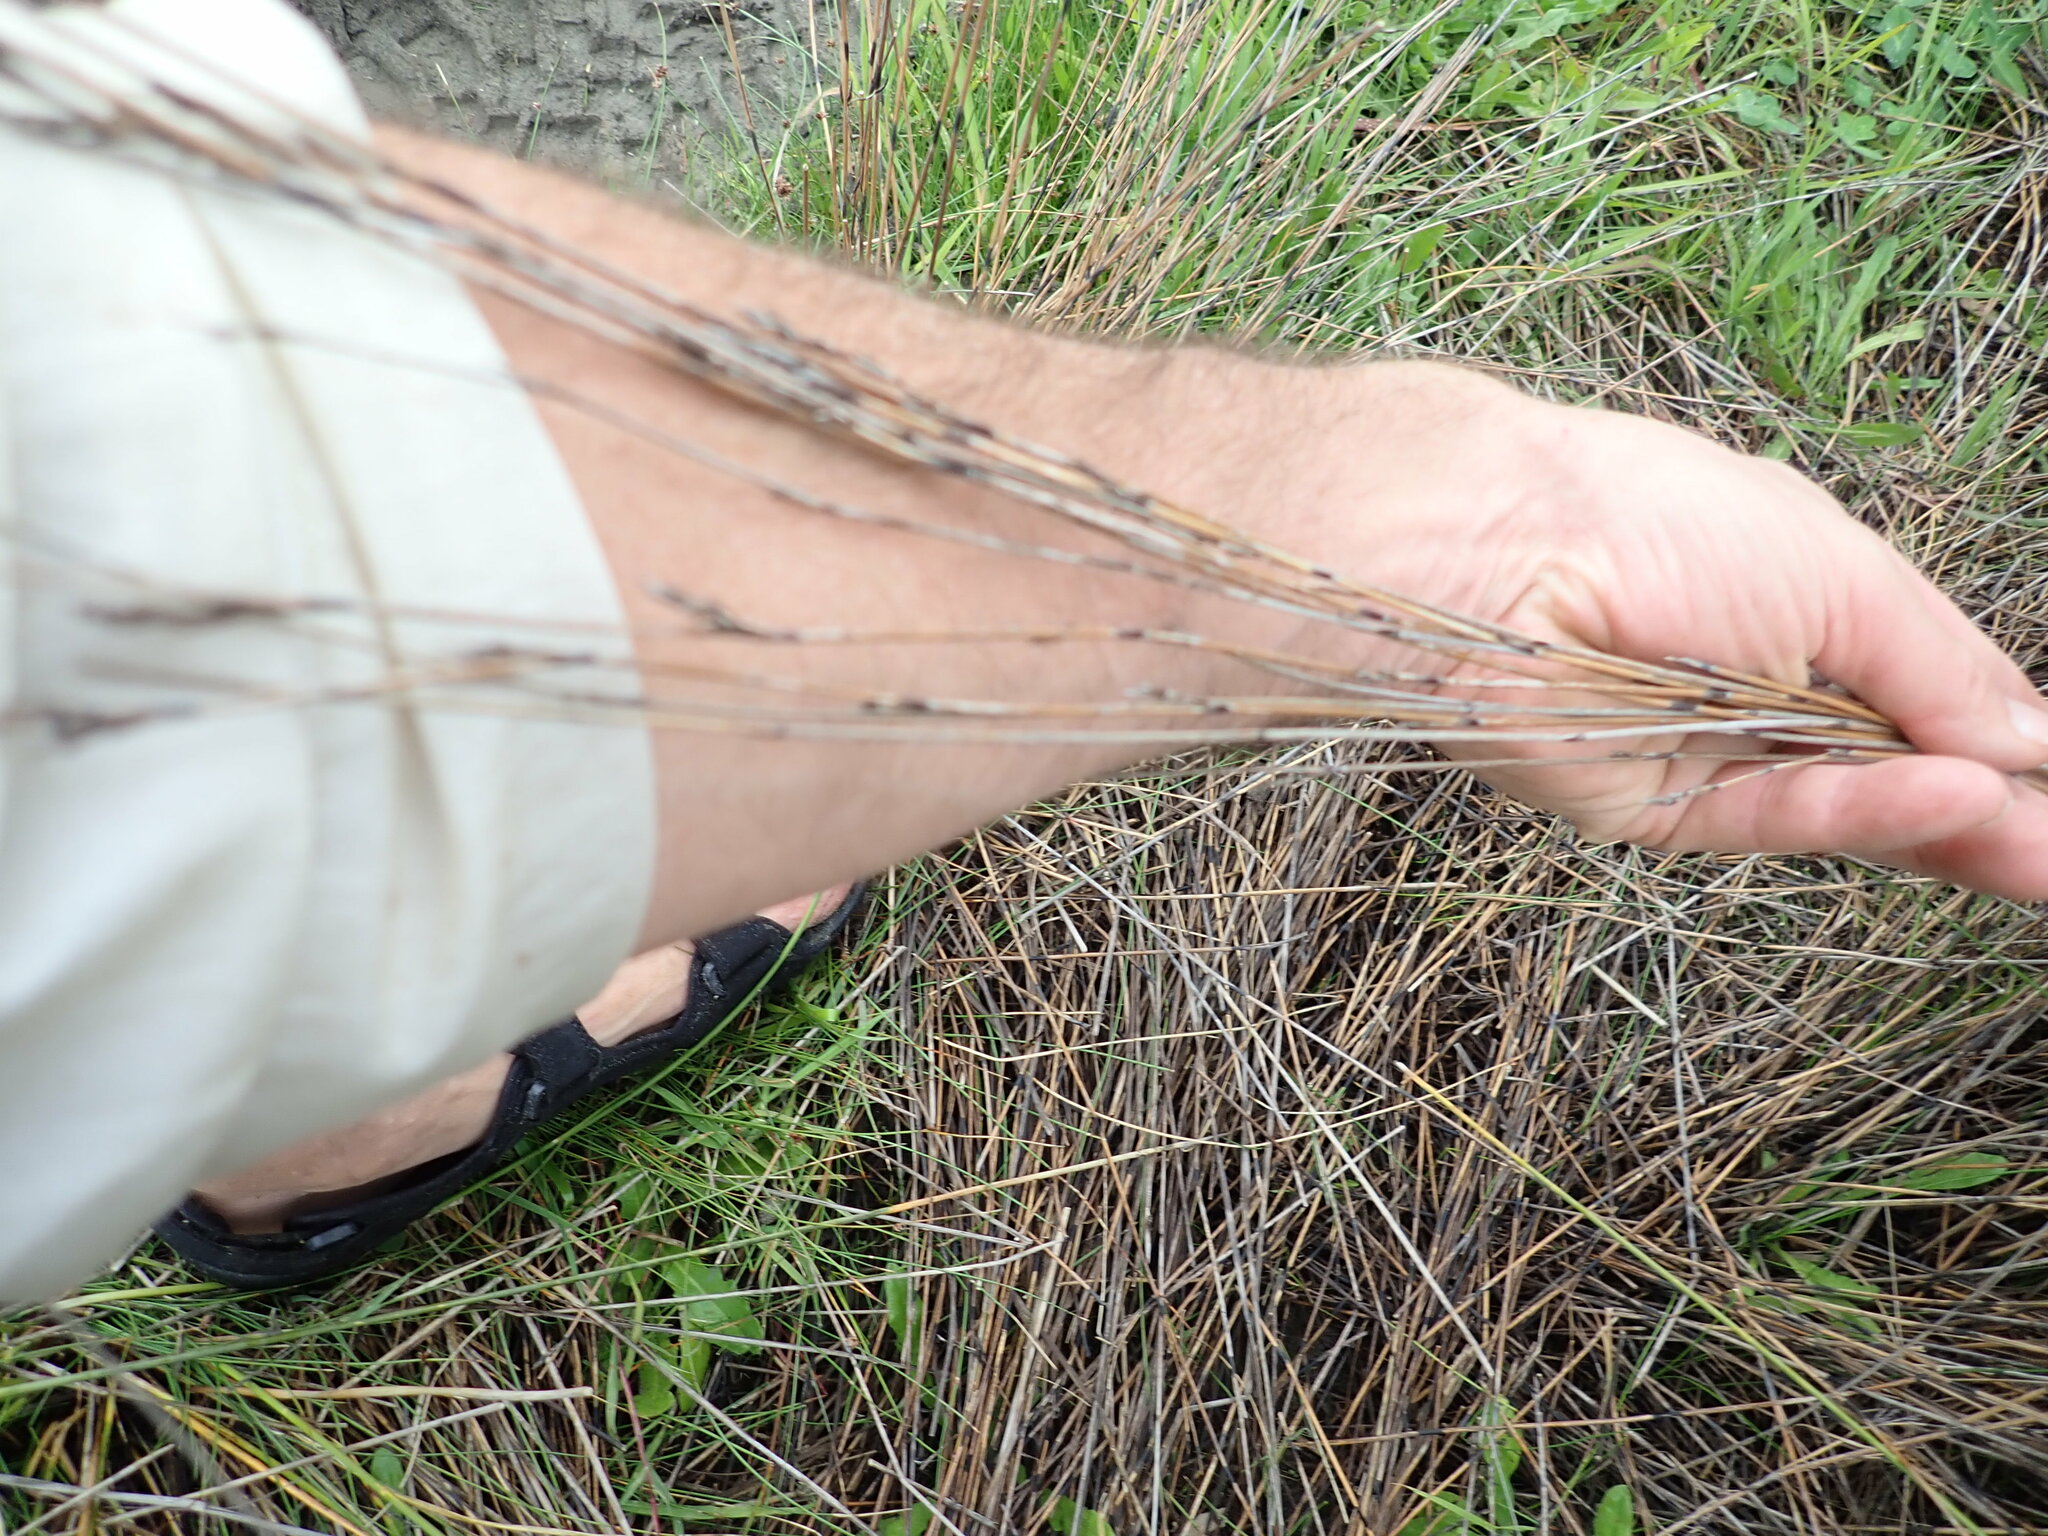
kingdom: Plantae
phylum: Tracheophyta
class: Liliopsida
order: Poales
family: Restionaceae
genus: Apodasmia
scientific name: Apodasmia similis
